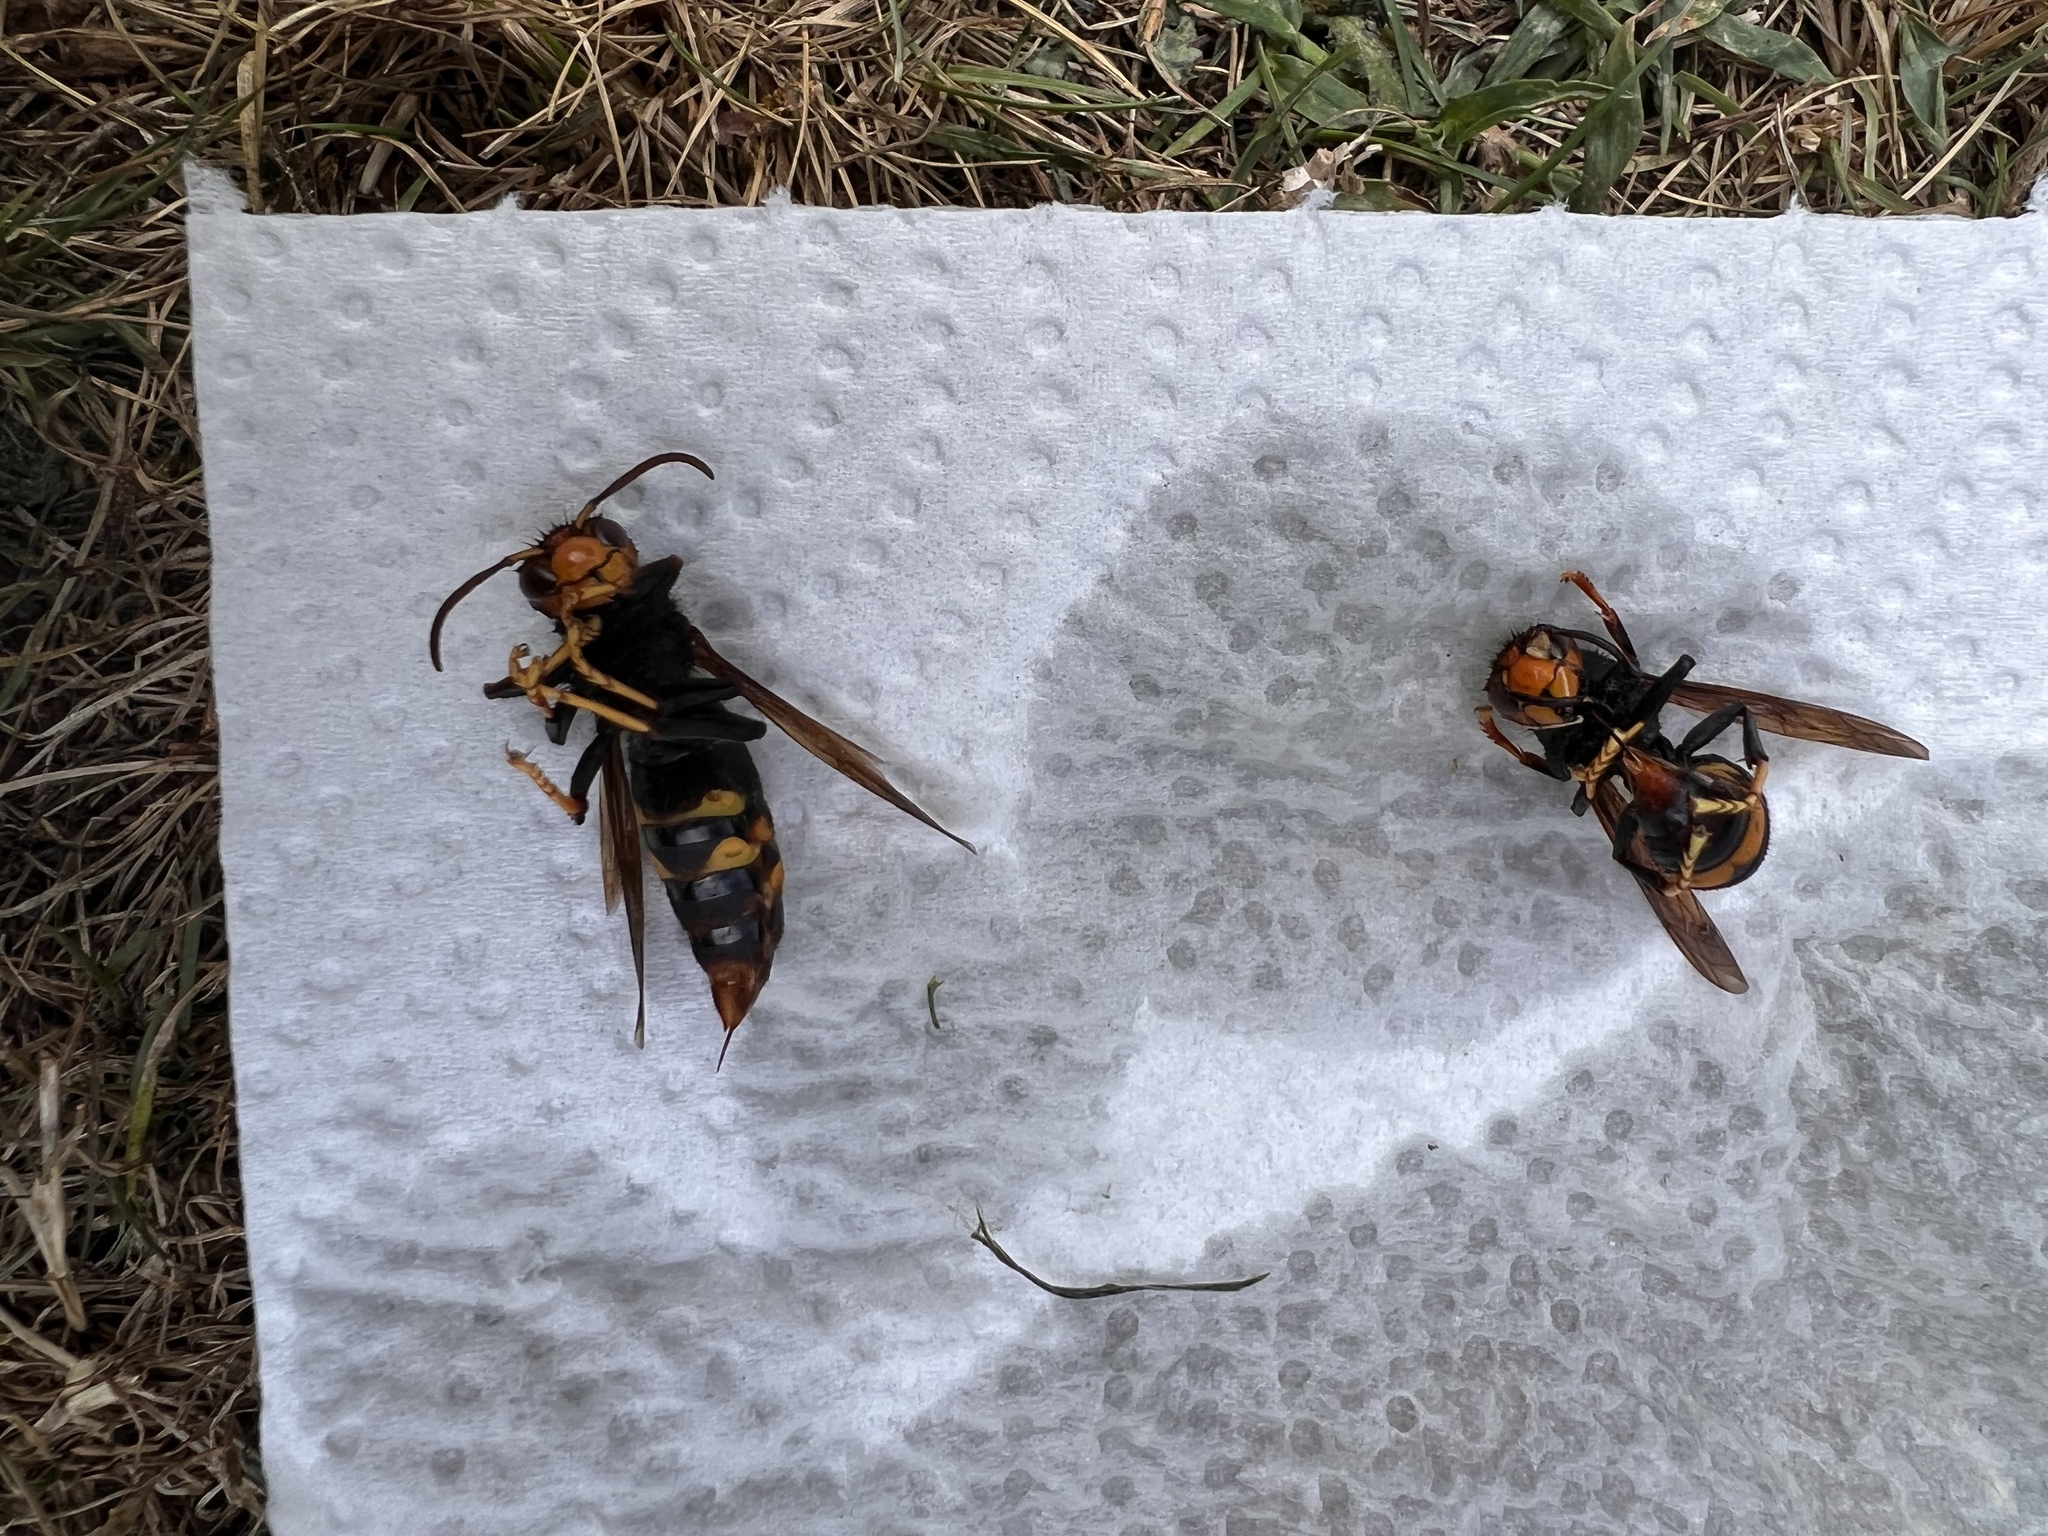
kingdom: Animalia
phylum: Arthropoda
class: Insecta
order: Hymenoptera
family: Vespidae
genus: Vespa
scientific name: Vespa velutina
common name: Asian hornet
